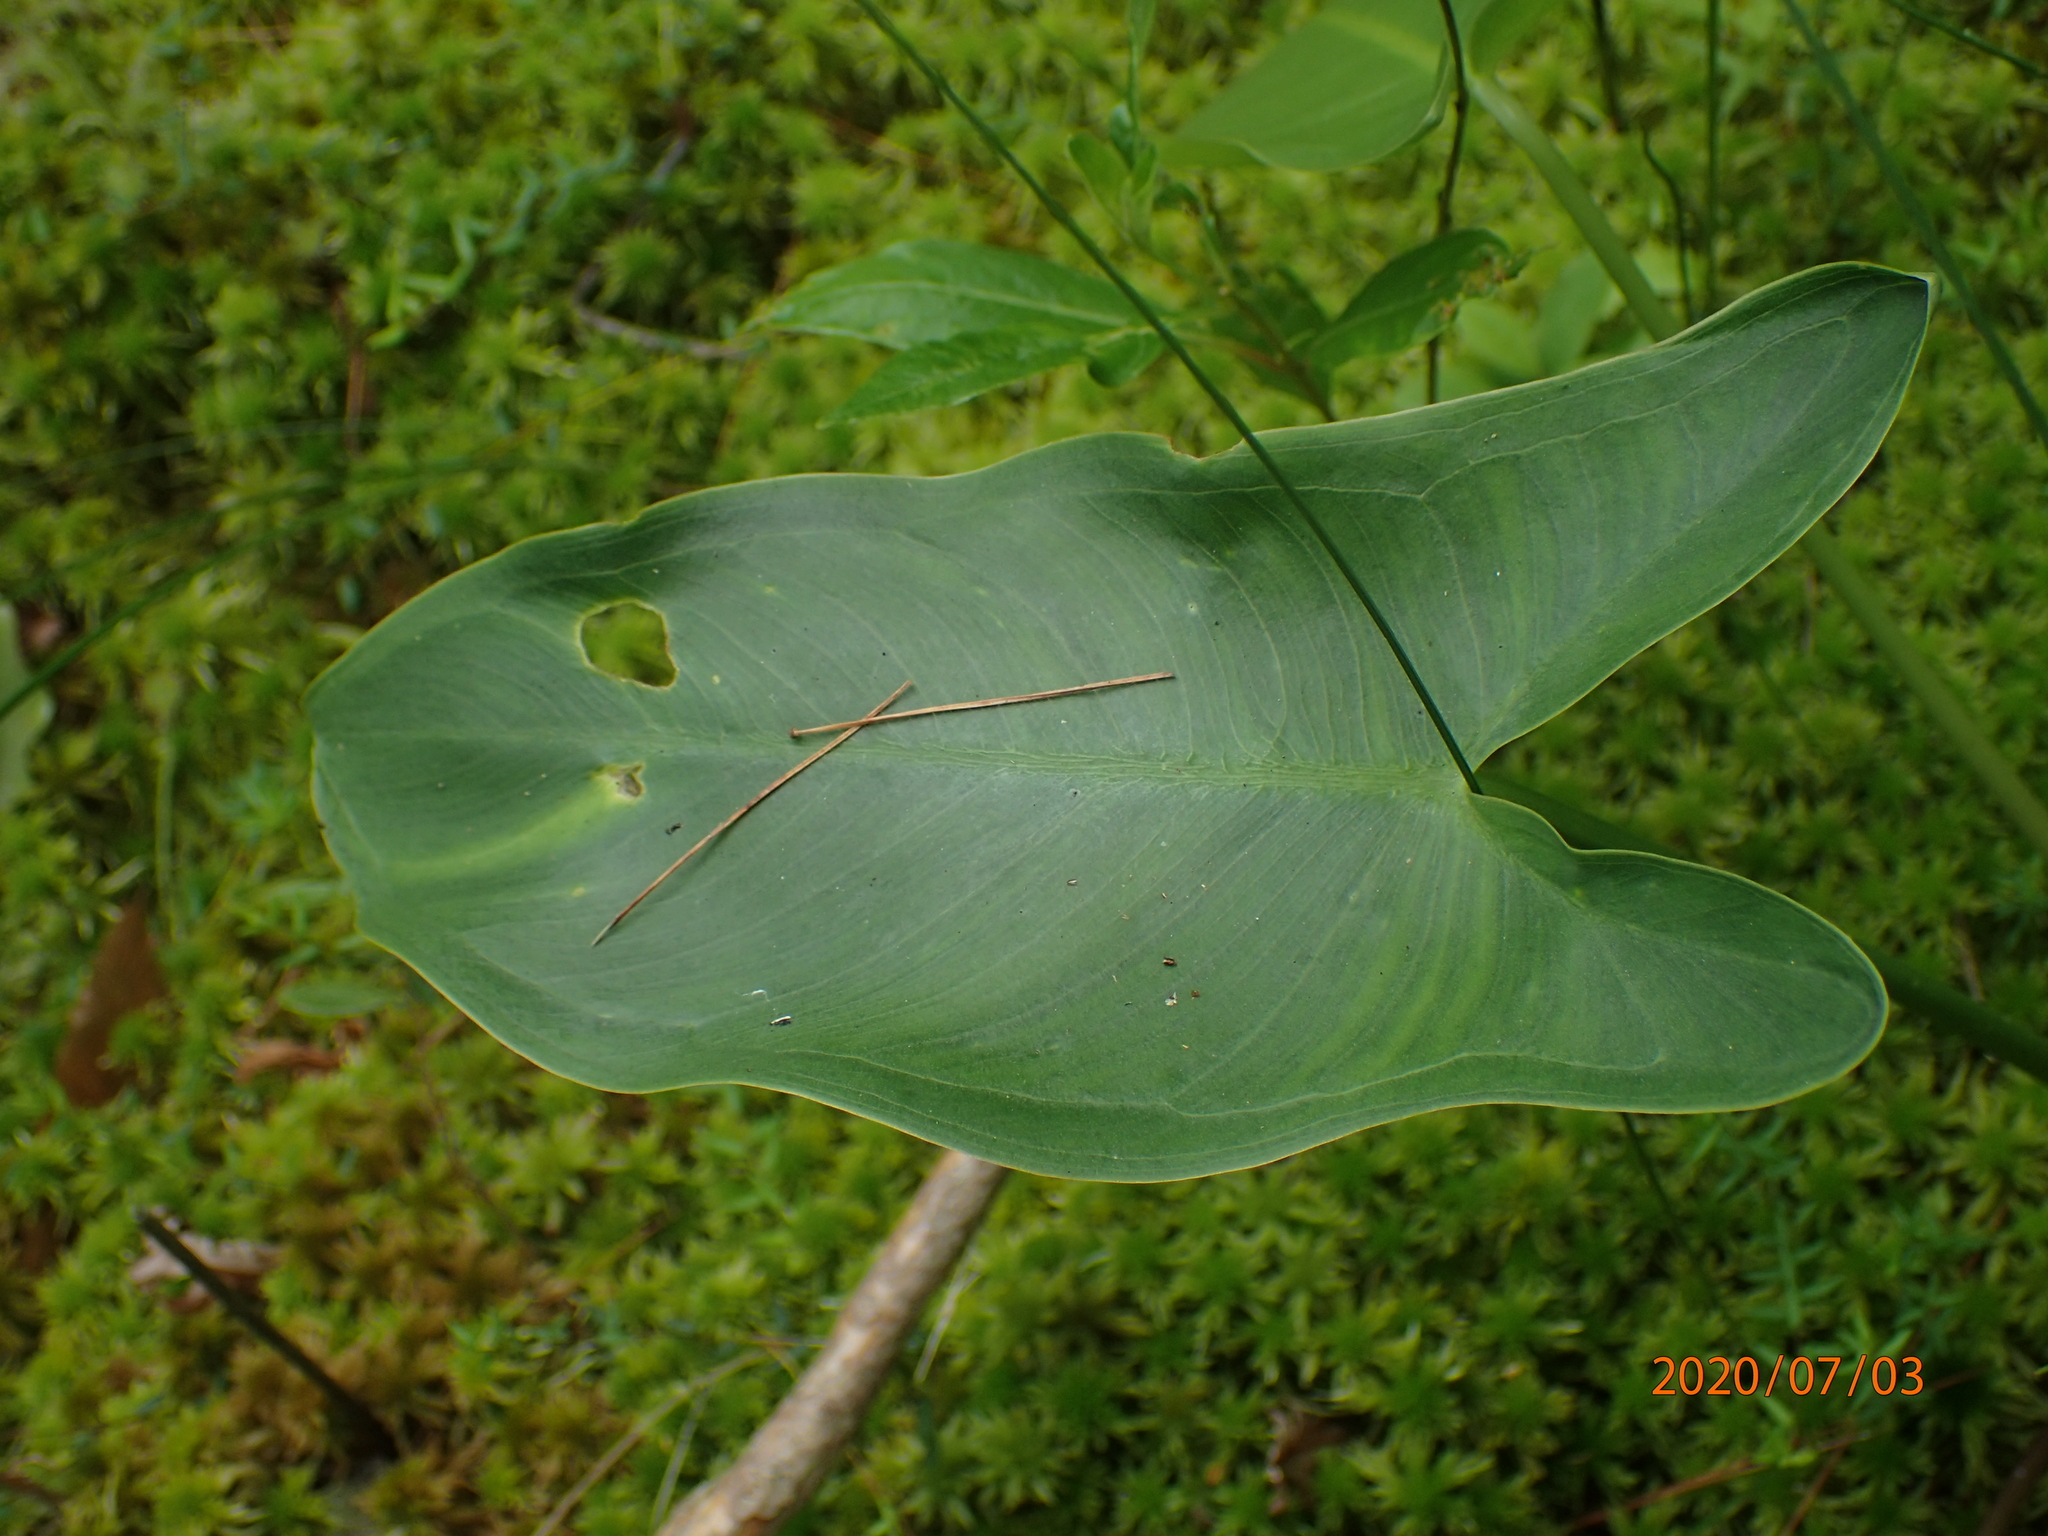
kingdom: Plantae
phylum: Tracheophyta
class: Liliopsida
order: Alismatales
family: Araceae
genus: Peltandra
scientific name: Peltandra virginica
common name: Arrow arum
